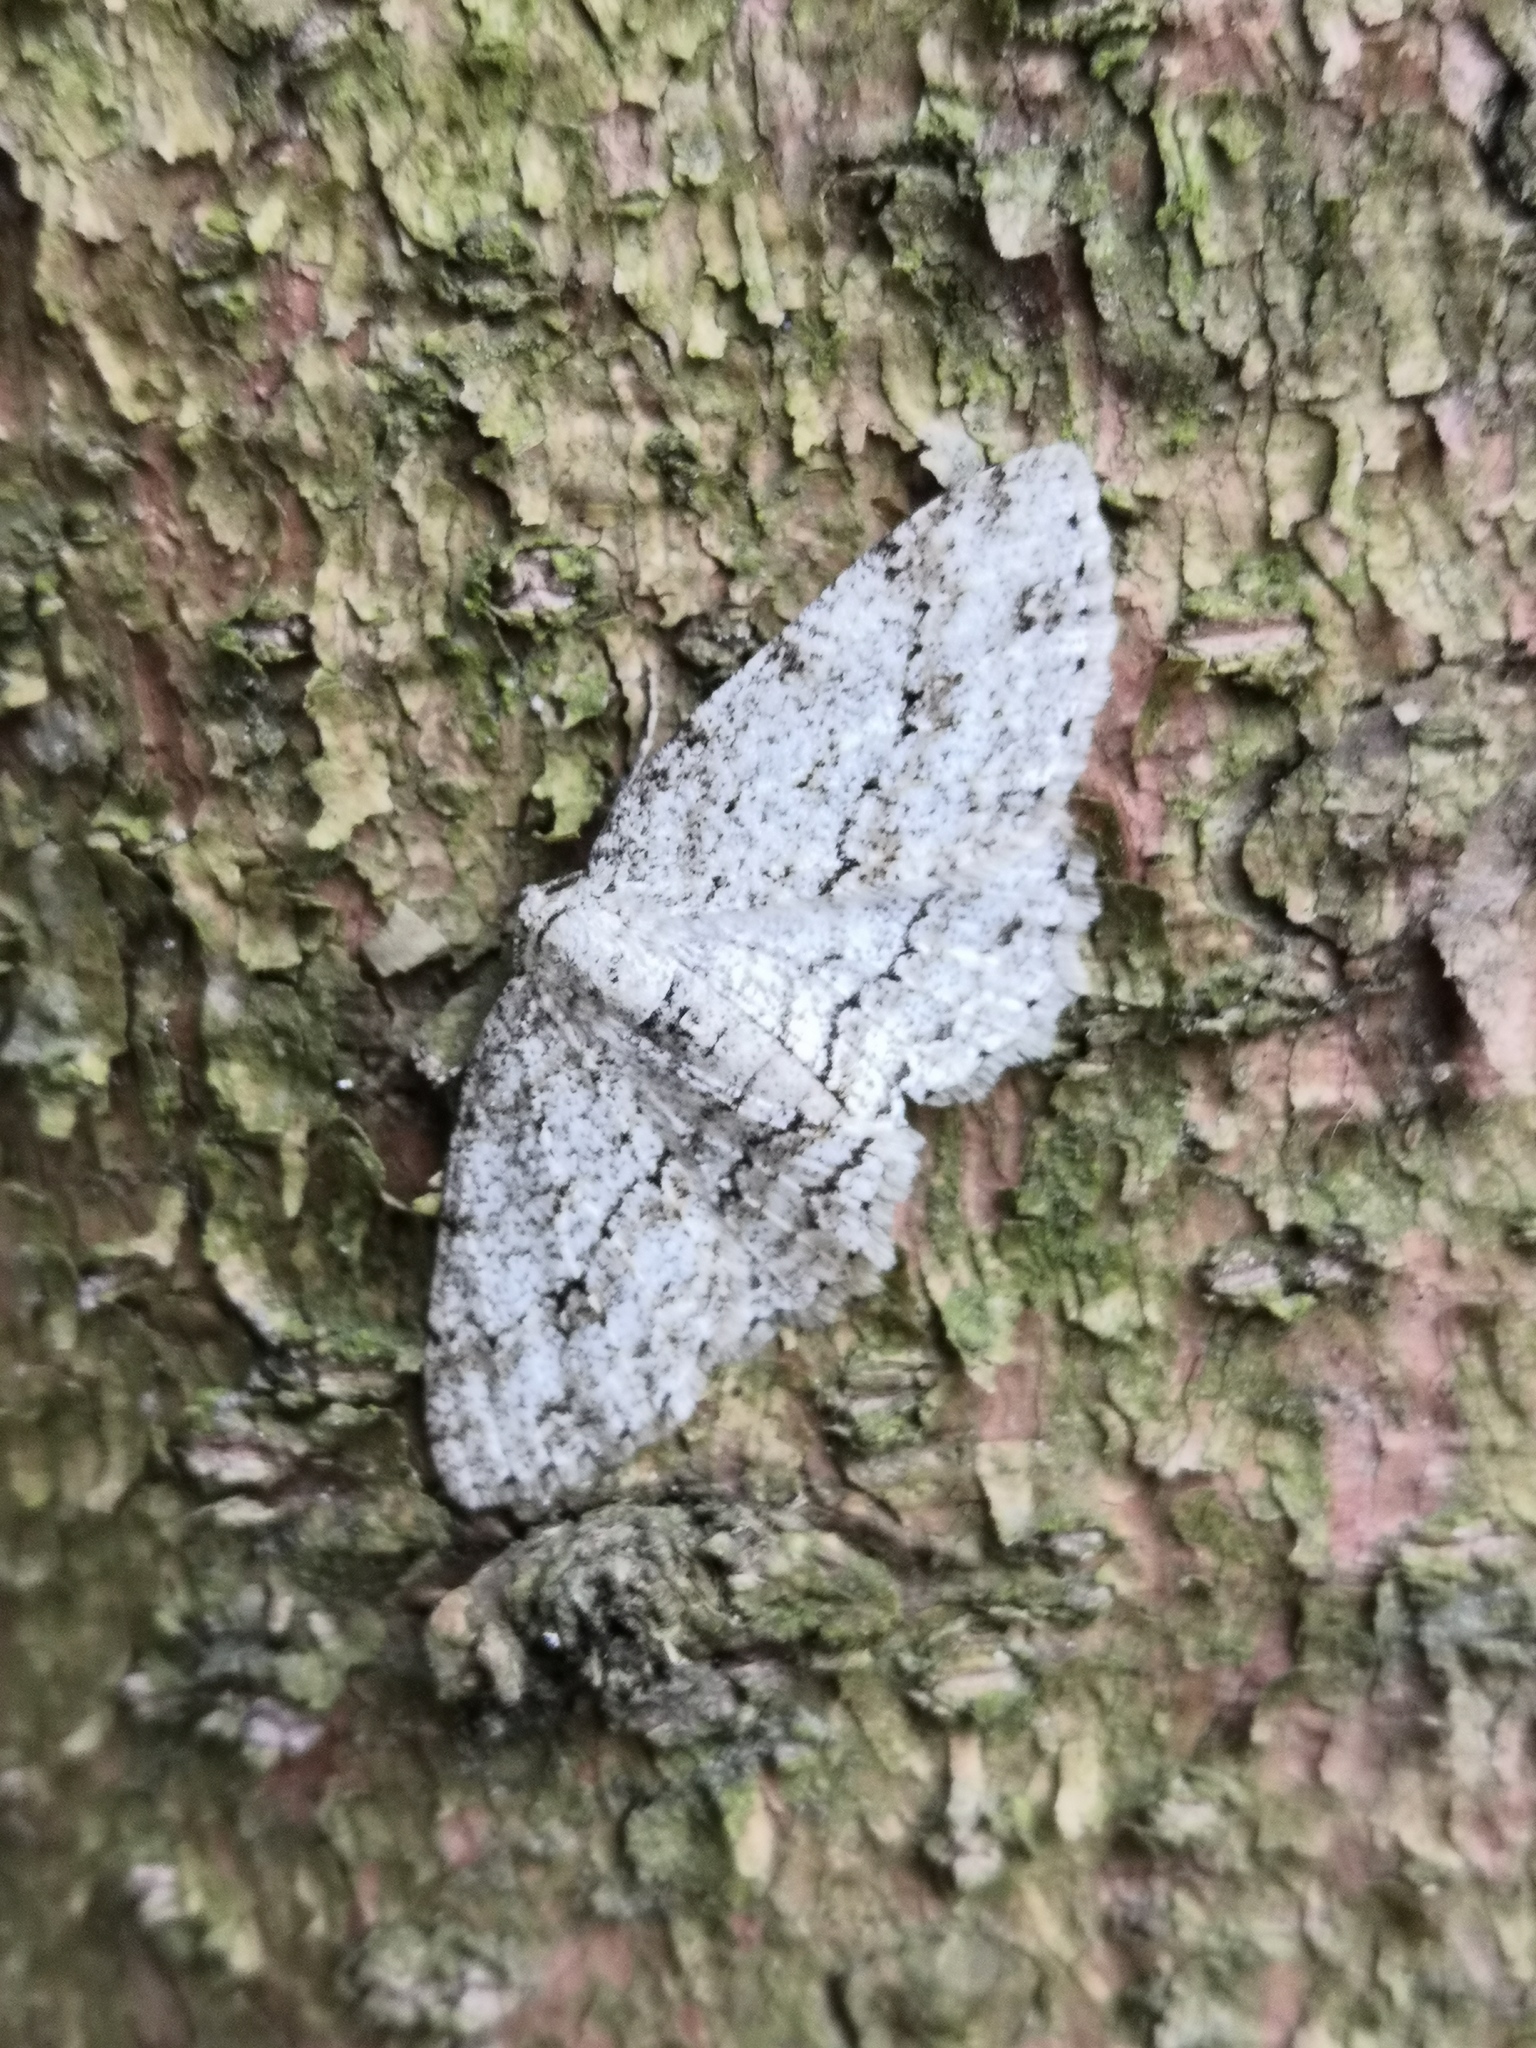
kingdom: Animalia
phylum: Arthropoda
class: Insecta
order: Lepidoptera
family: Geometridae
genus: Ectropis
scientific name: Ectropis crepuscularia
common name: Engrailed
